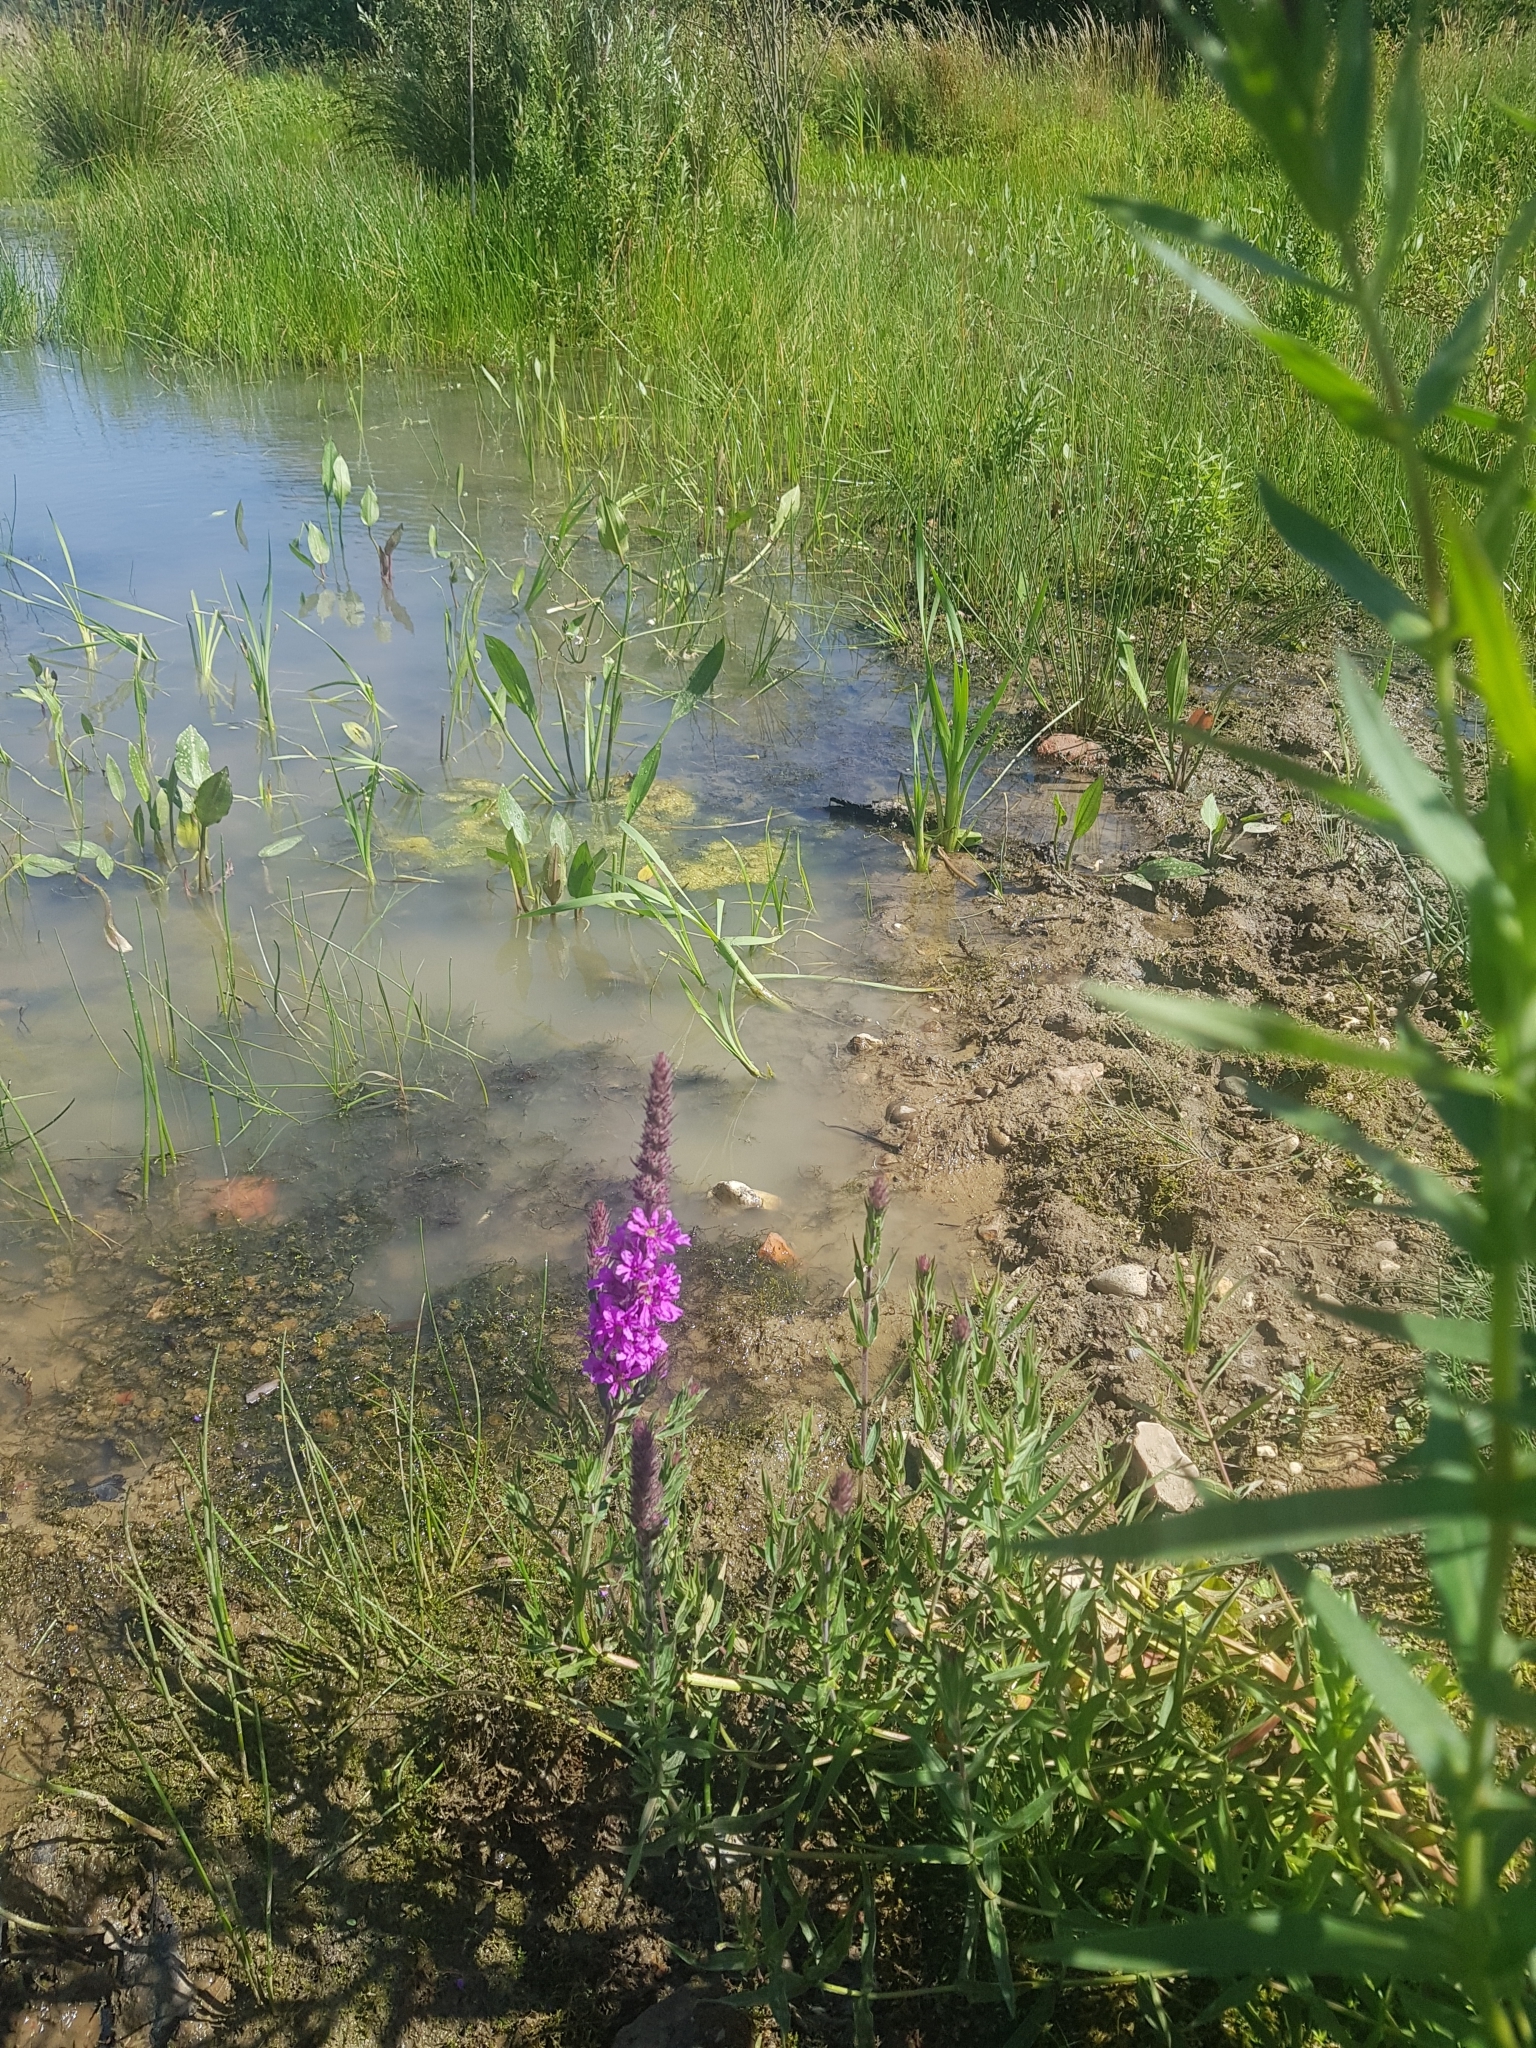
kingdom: Plantae
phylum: Tracheophyta
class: Magnoliopsida
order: Myrtales
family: Lythraceae
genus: Lythrum
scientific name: Lythrum salicaria
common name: Purple loosestrife
